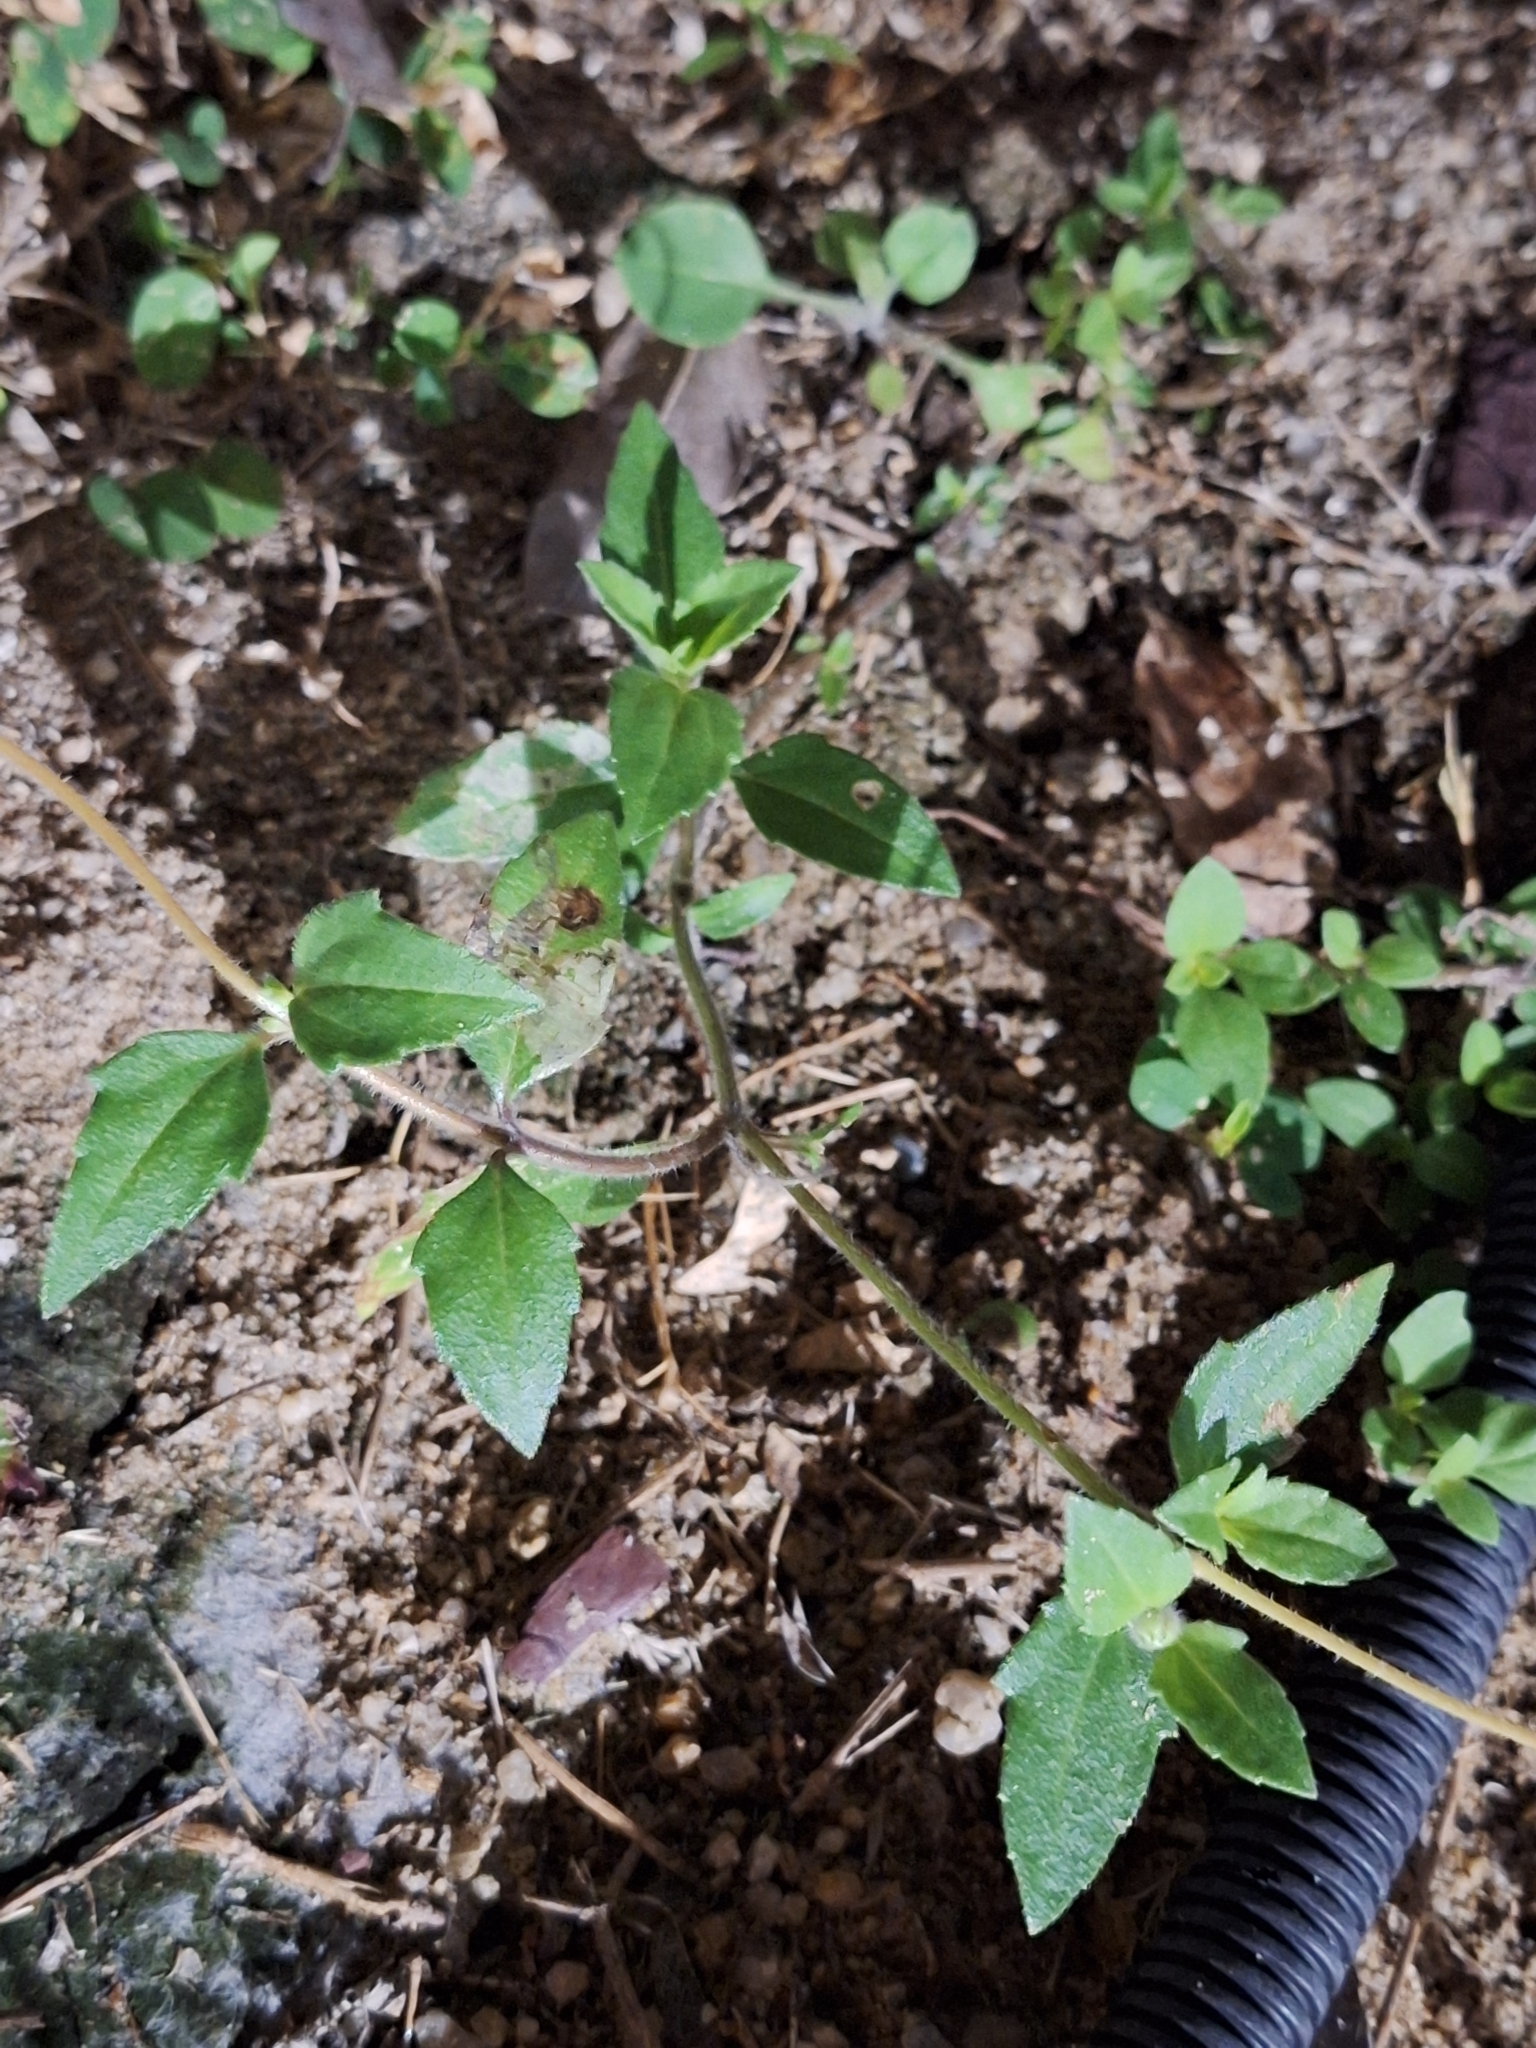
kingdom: Plantae
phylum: Tracheophyta
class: Magnoliopsida
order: Asterales
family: Asteraceae
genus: Tridax
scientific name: Tridax procumbens
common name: Coatbuttons
